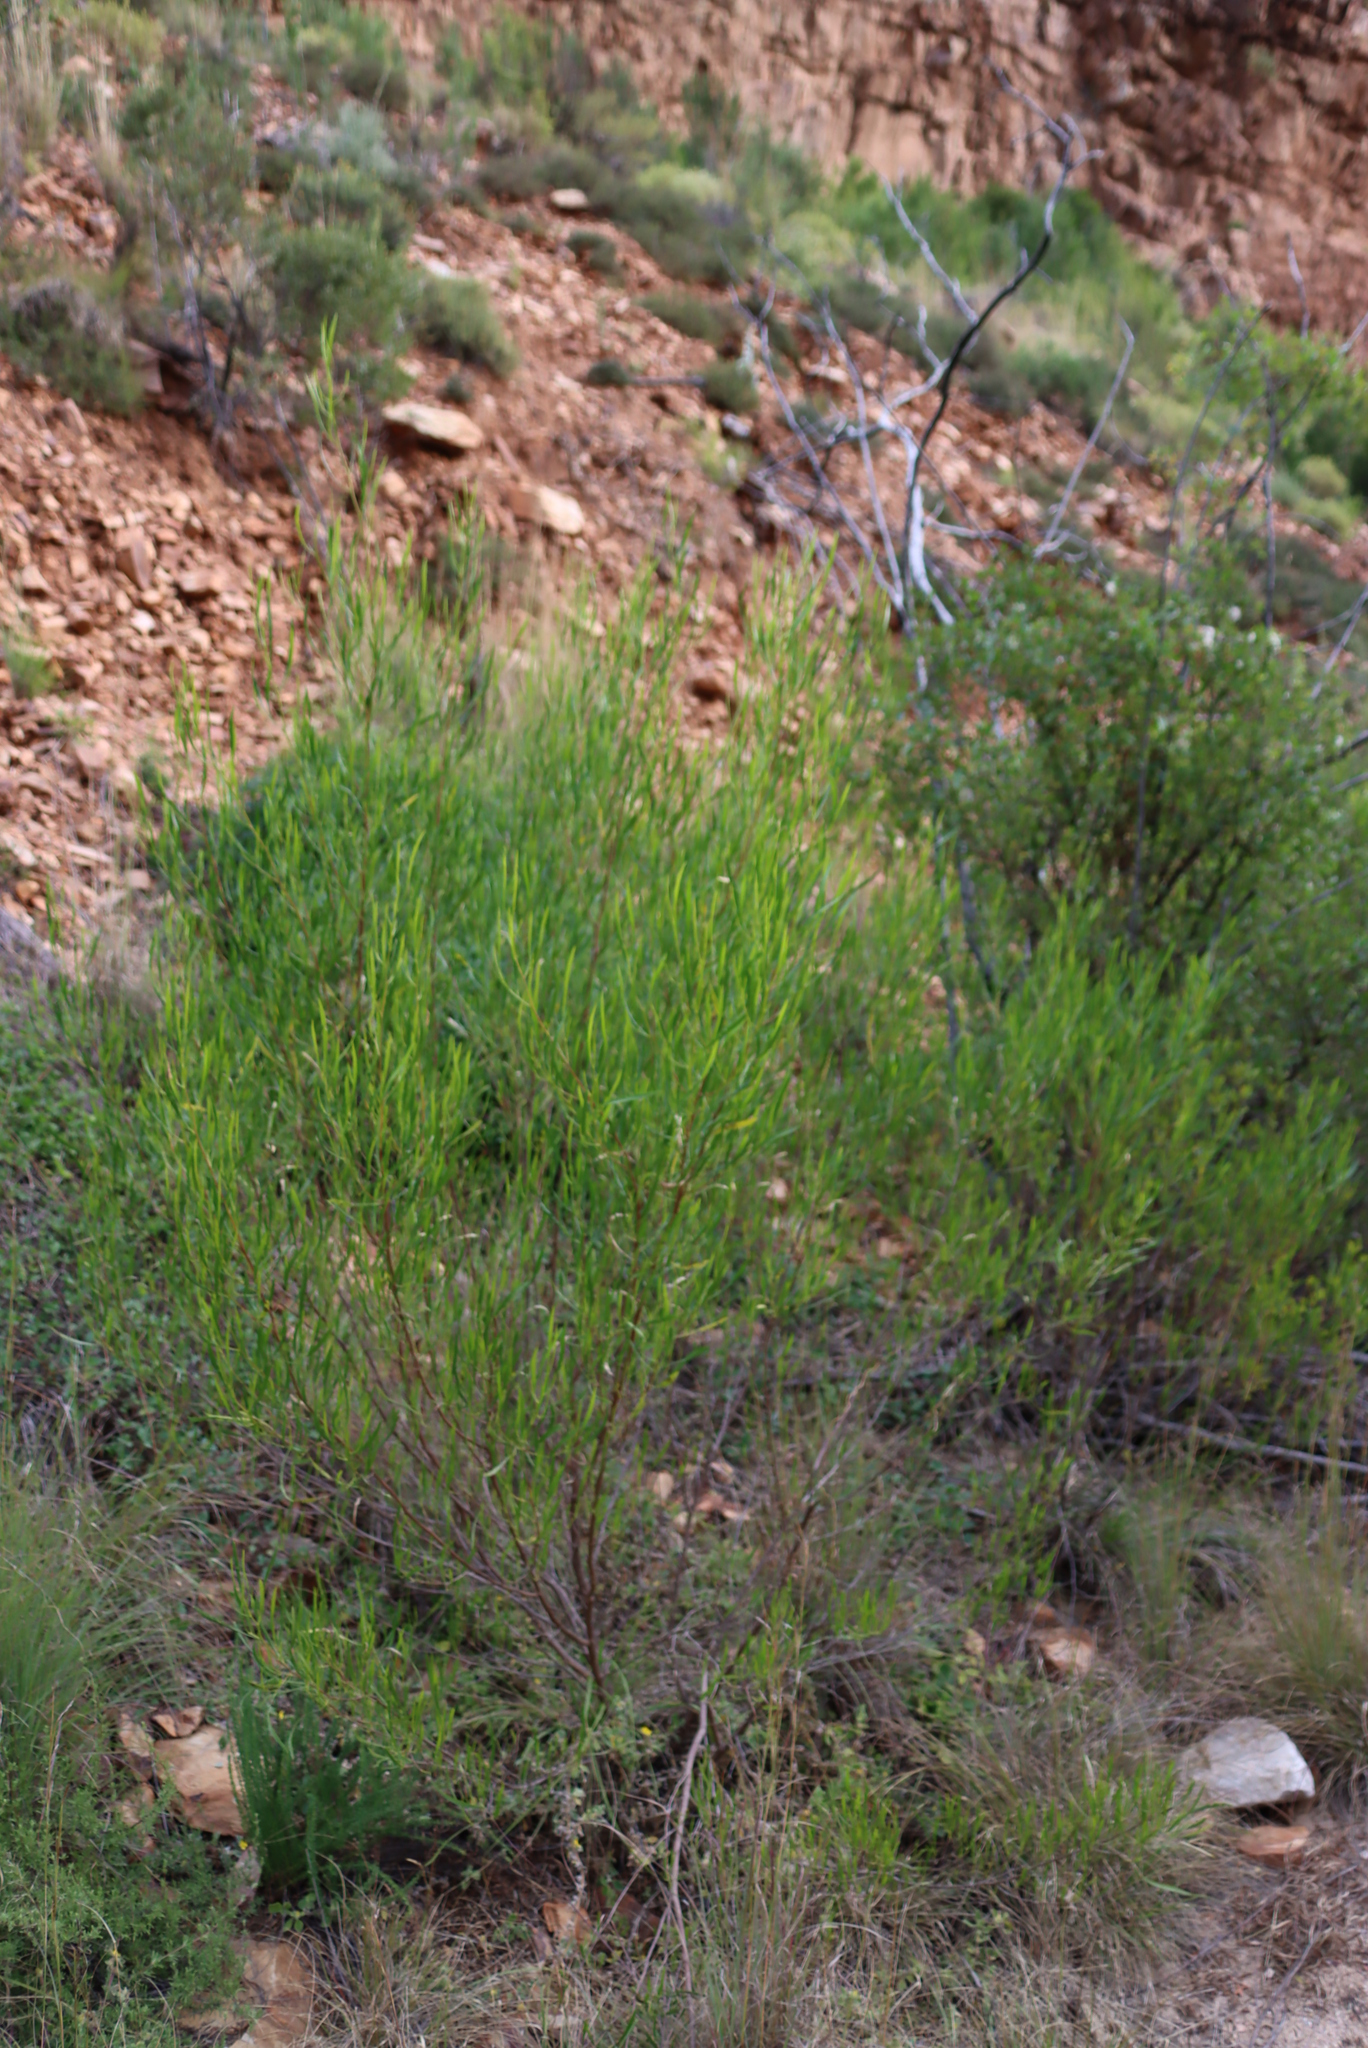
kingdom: Plantae
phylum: Tracheophyta
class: Magnoliopsida
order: Sapindales
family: Sapindaceae
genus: Dodonaea
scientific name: Dodonaea viscosa
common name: Hopbush
